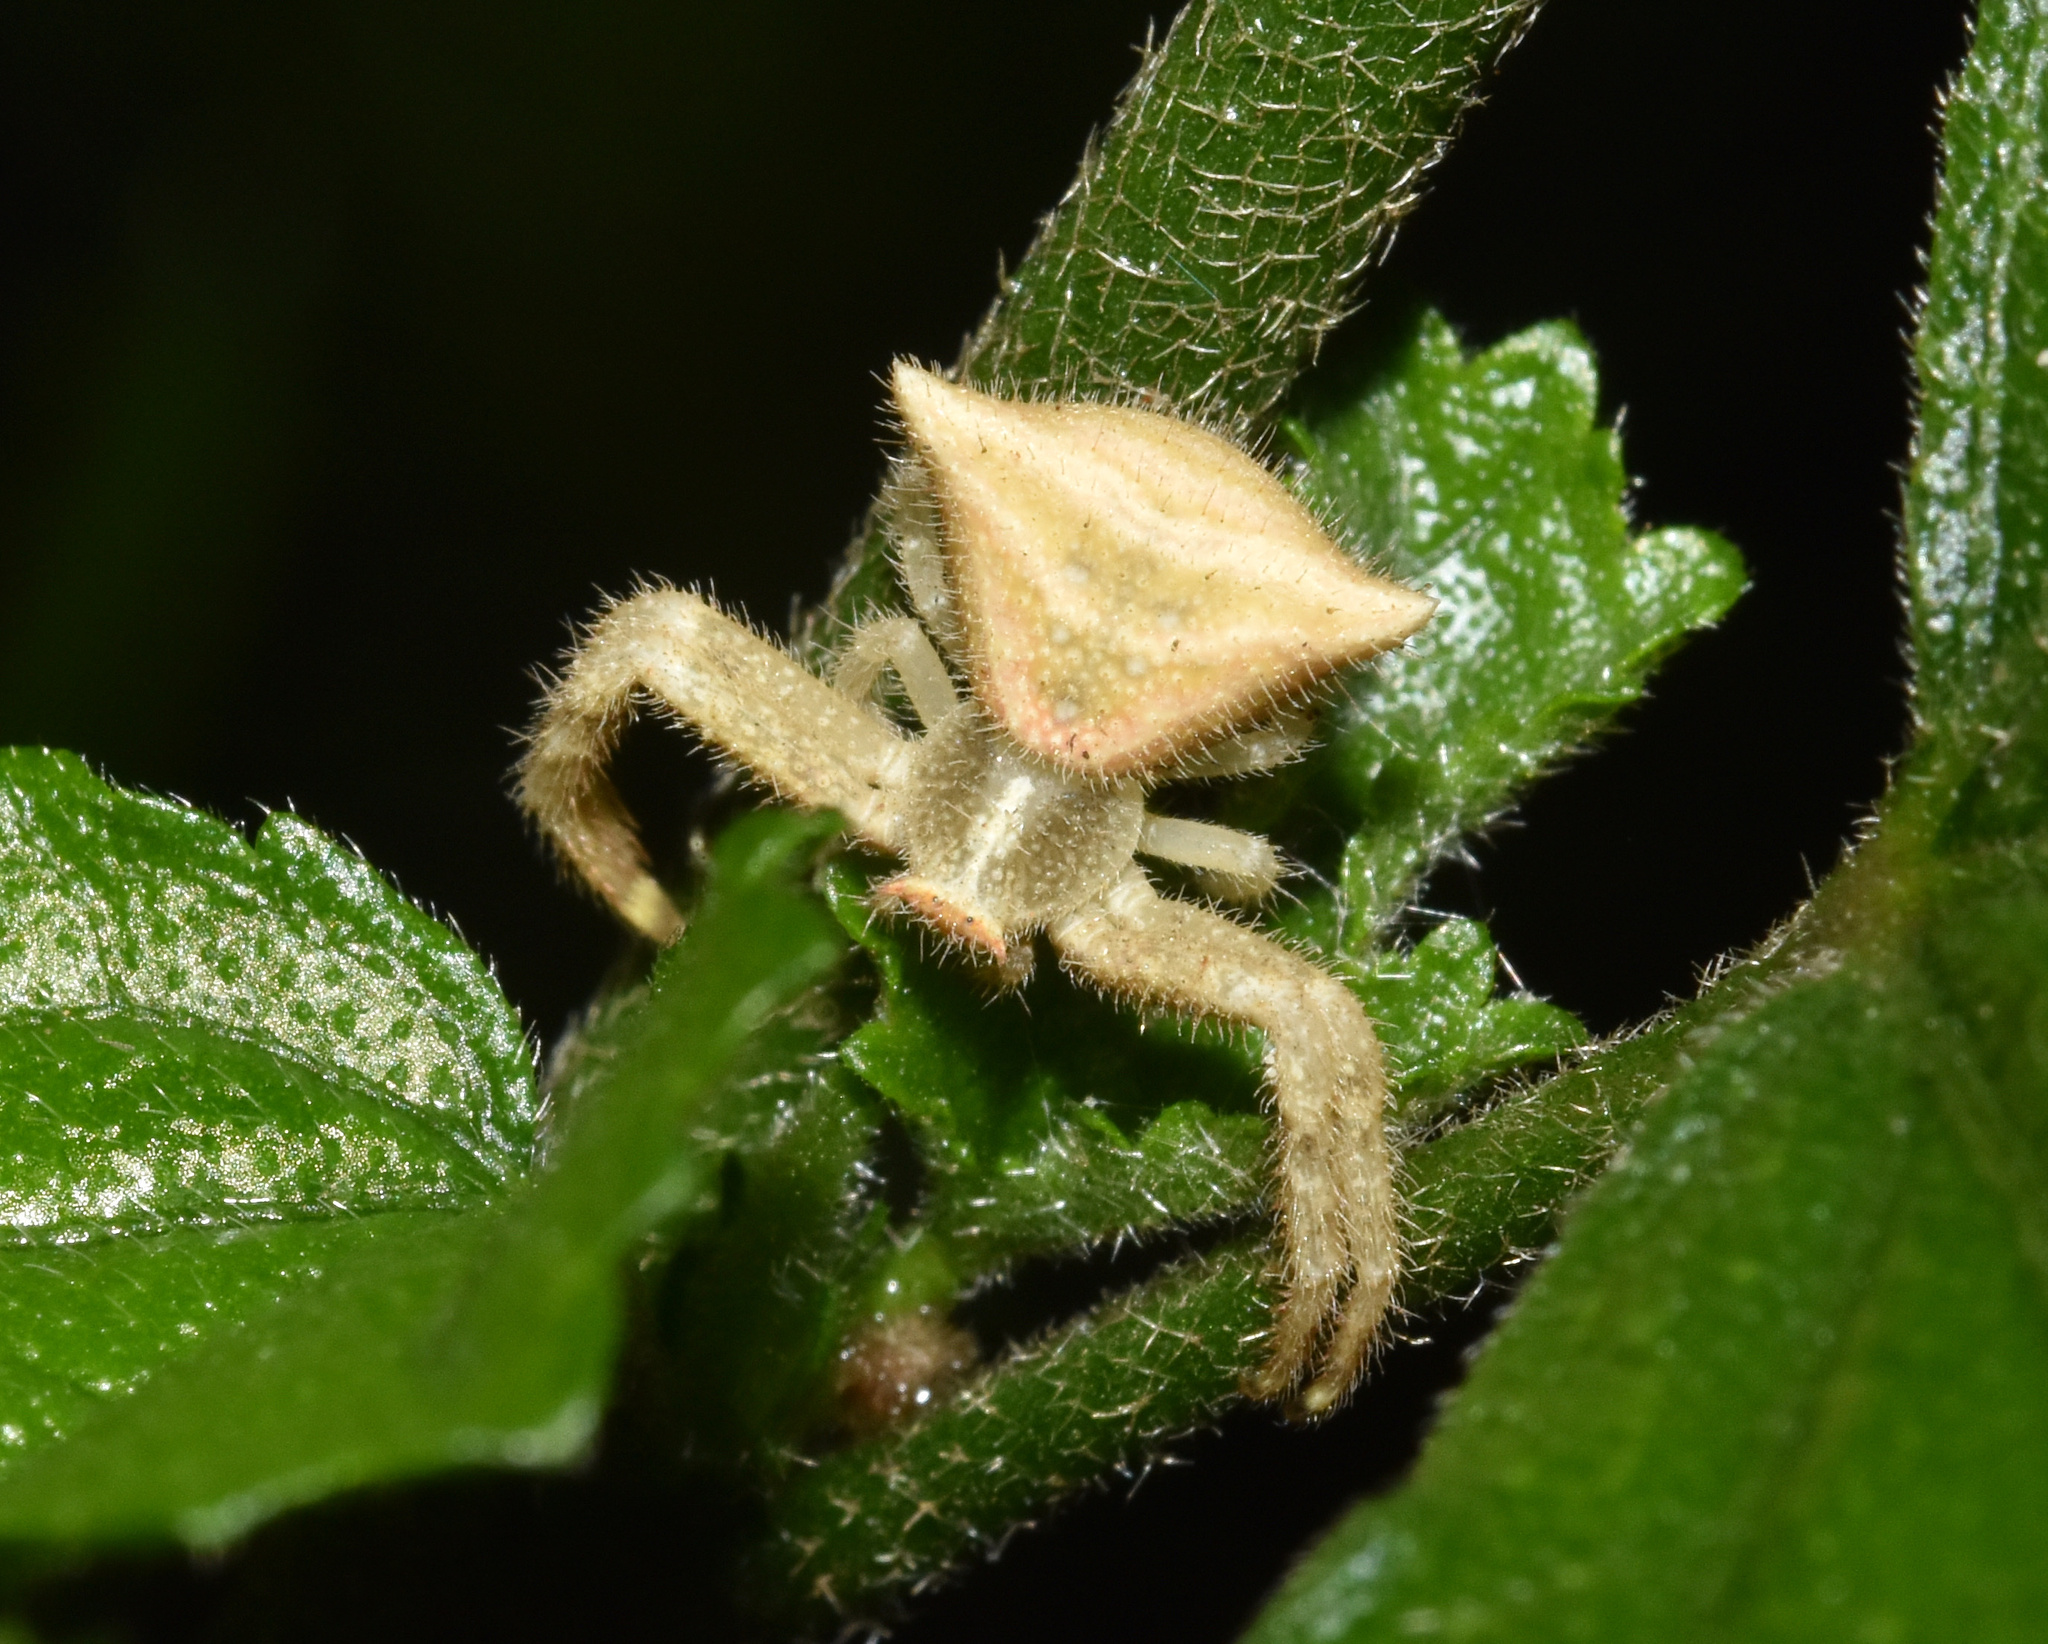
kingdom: Animalia
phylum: Arthropoda
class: Arachnida
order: Araneae
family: Thomisidae
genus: Thomisus
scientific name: Thomisus granulatus
